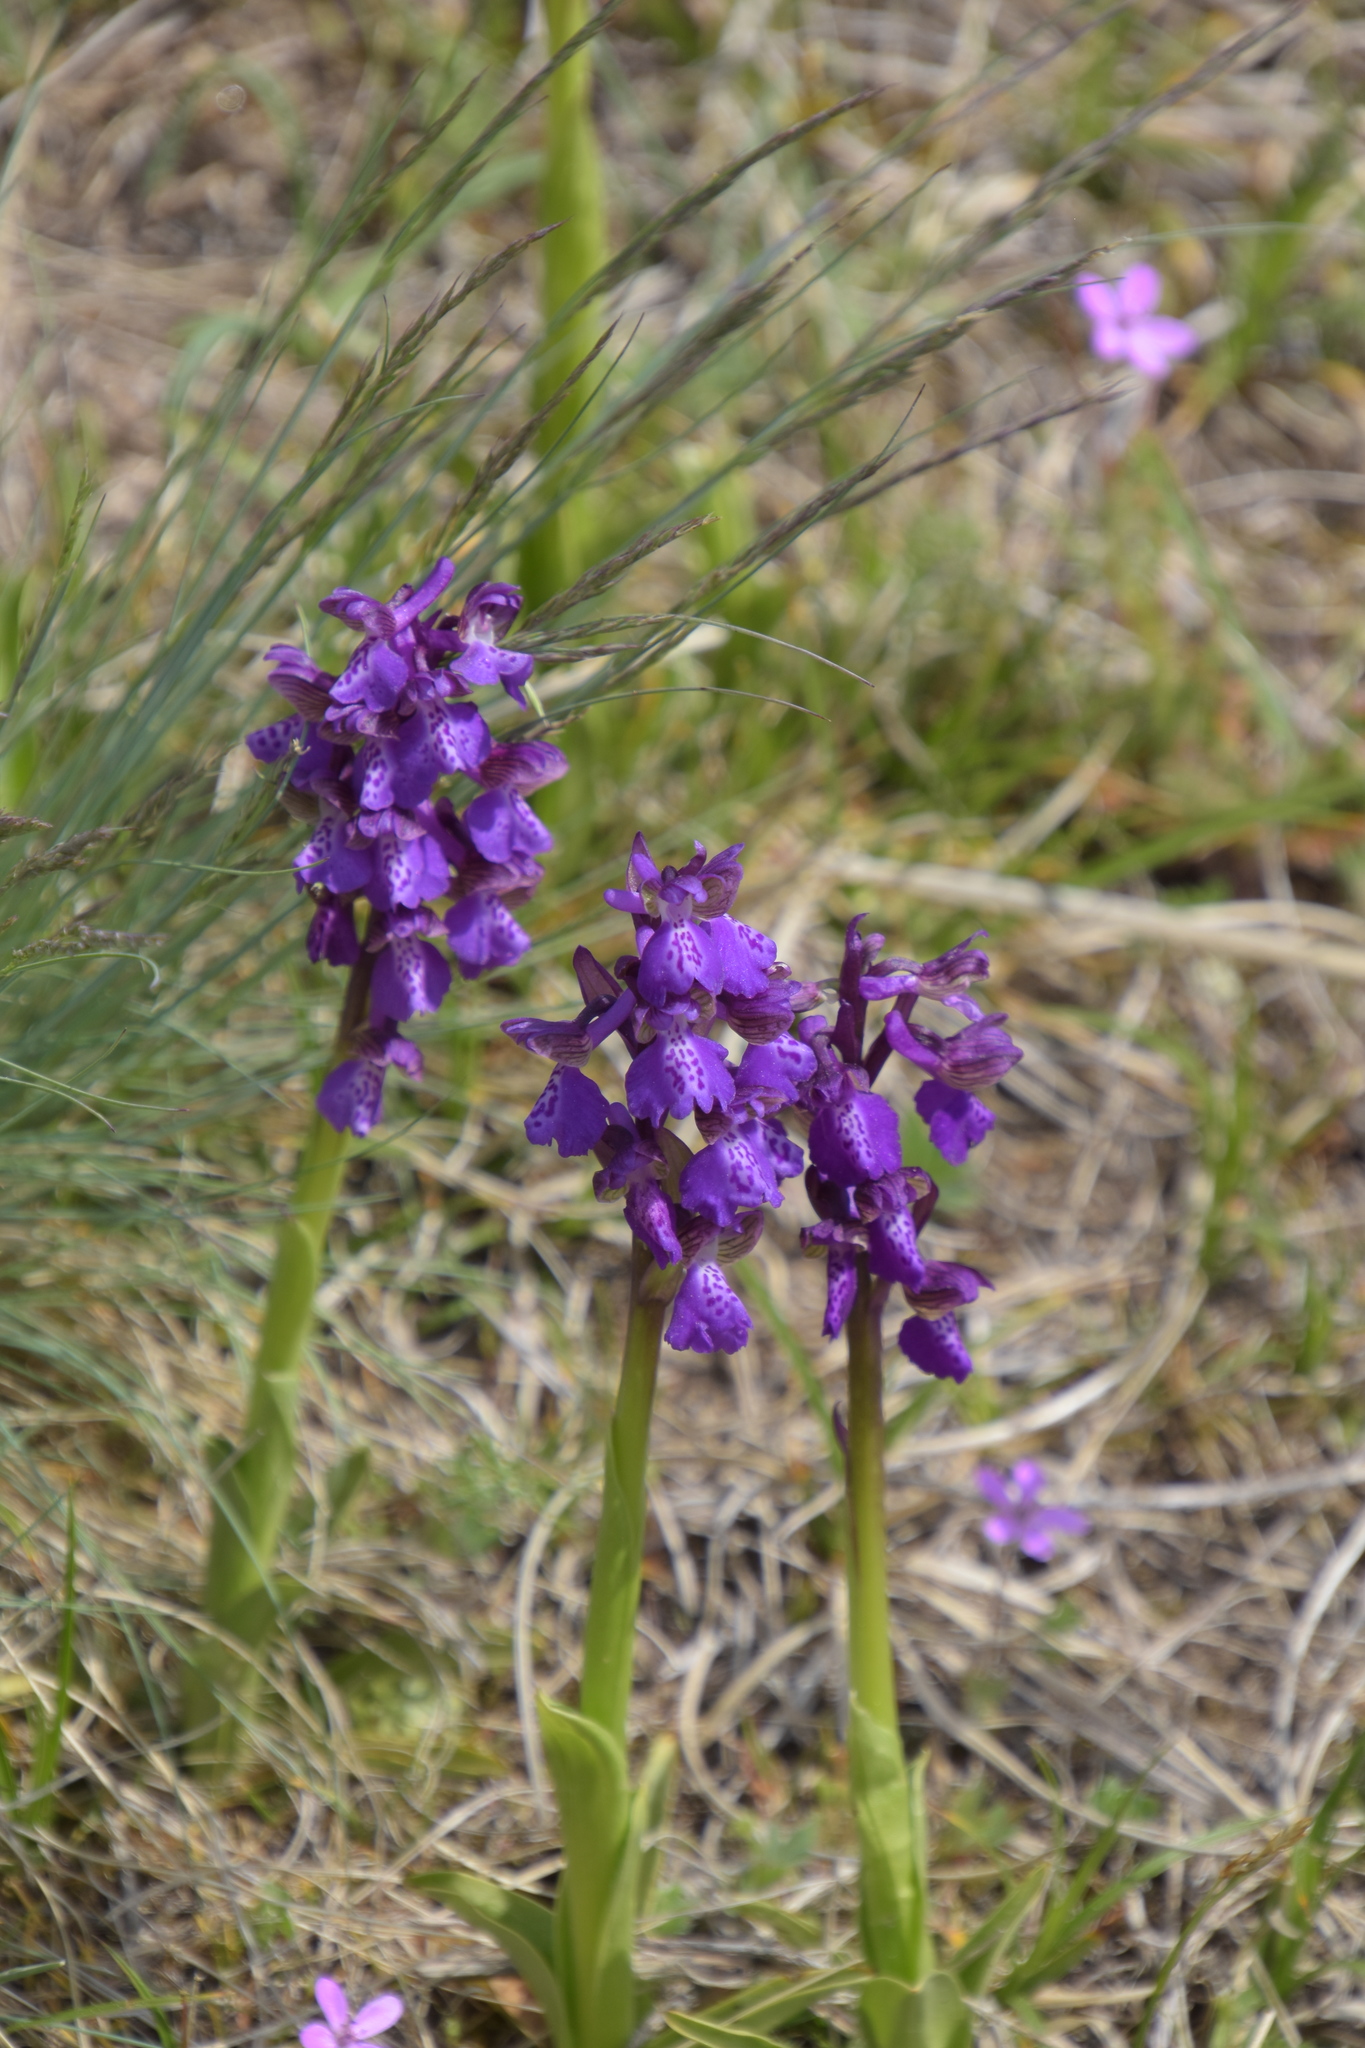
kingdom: Plantae
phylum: Tracheophyta
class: Liliopsida
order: Asparagales
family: Orchidaceae
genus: Anacamptis
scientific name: Anacamptis morio
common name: Green-winged orchid
